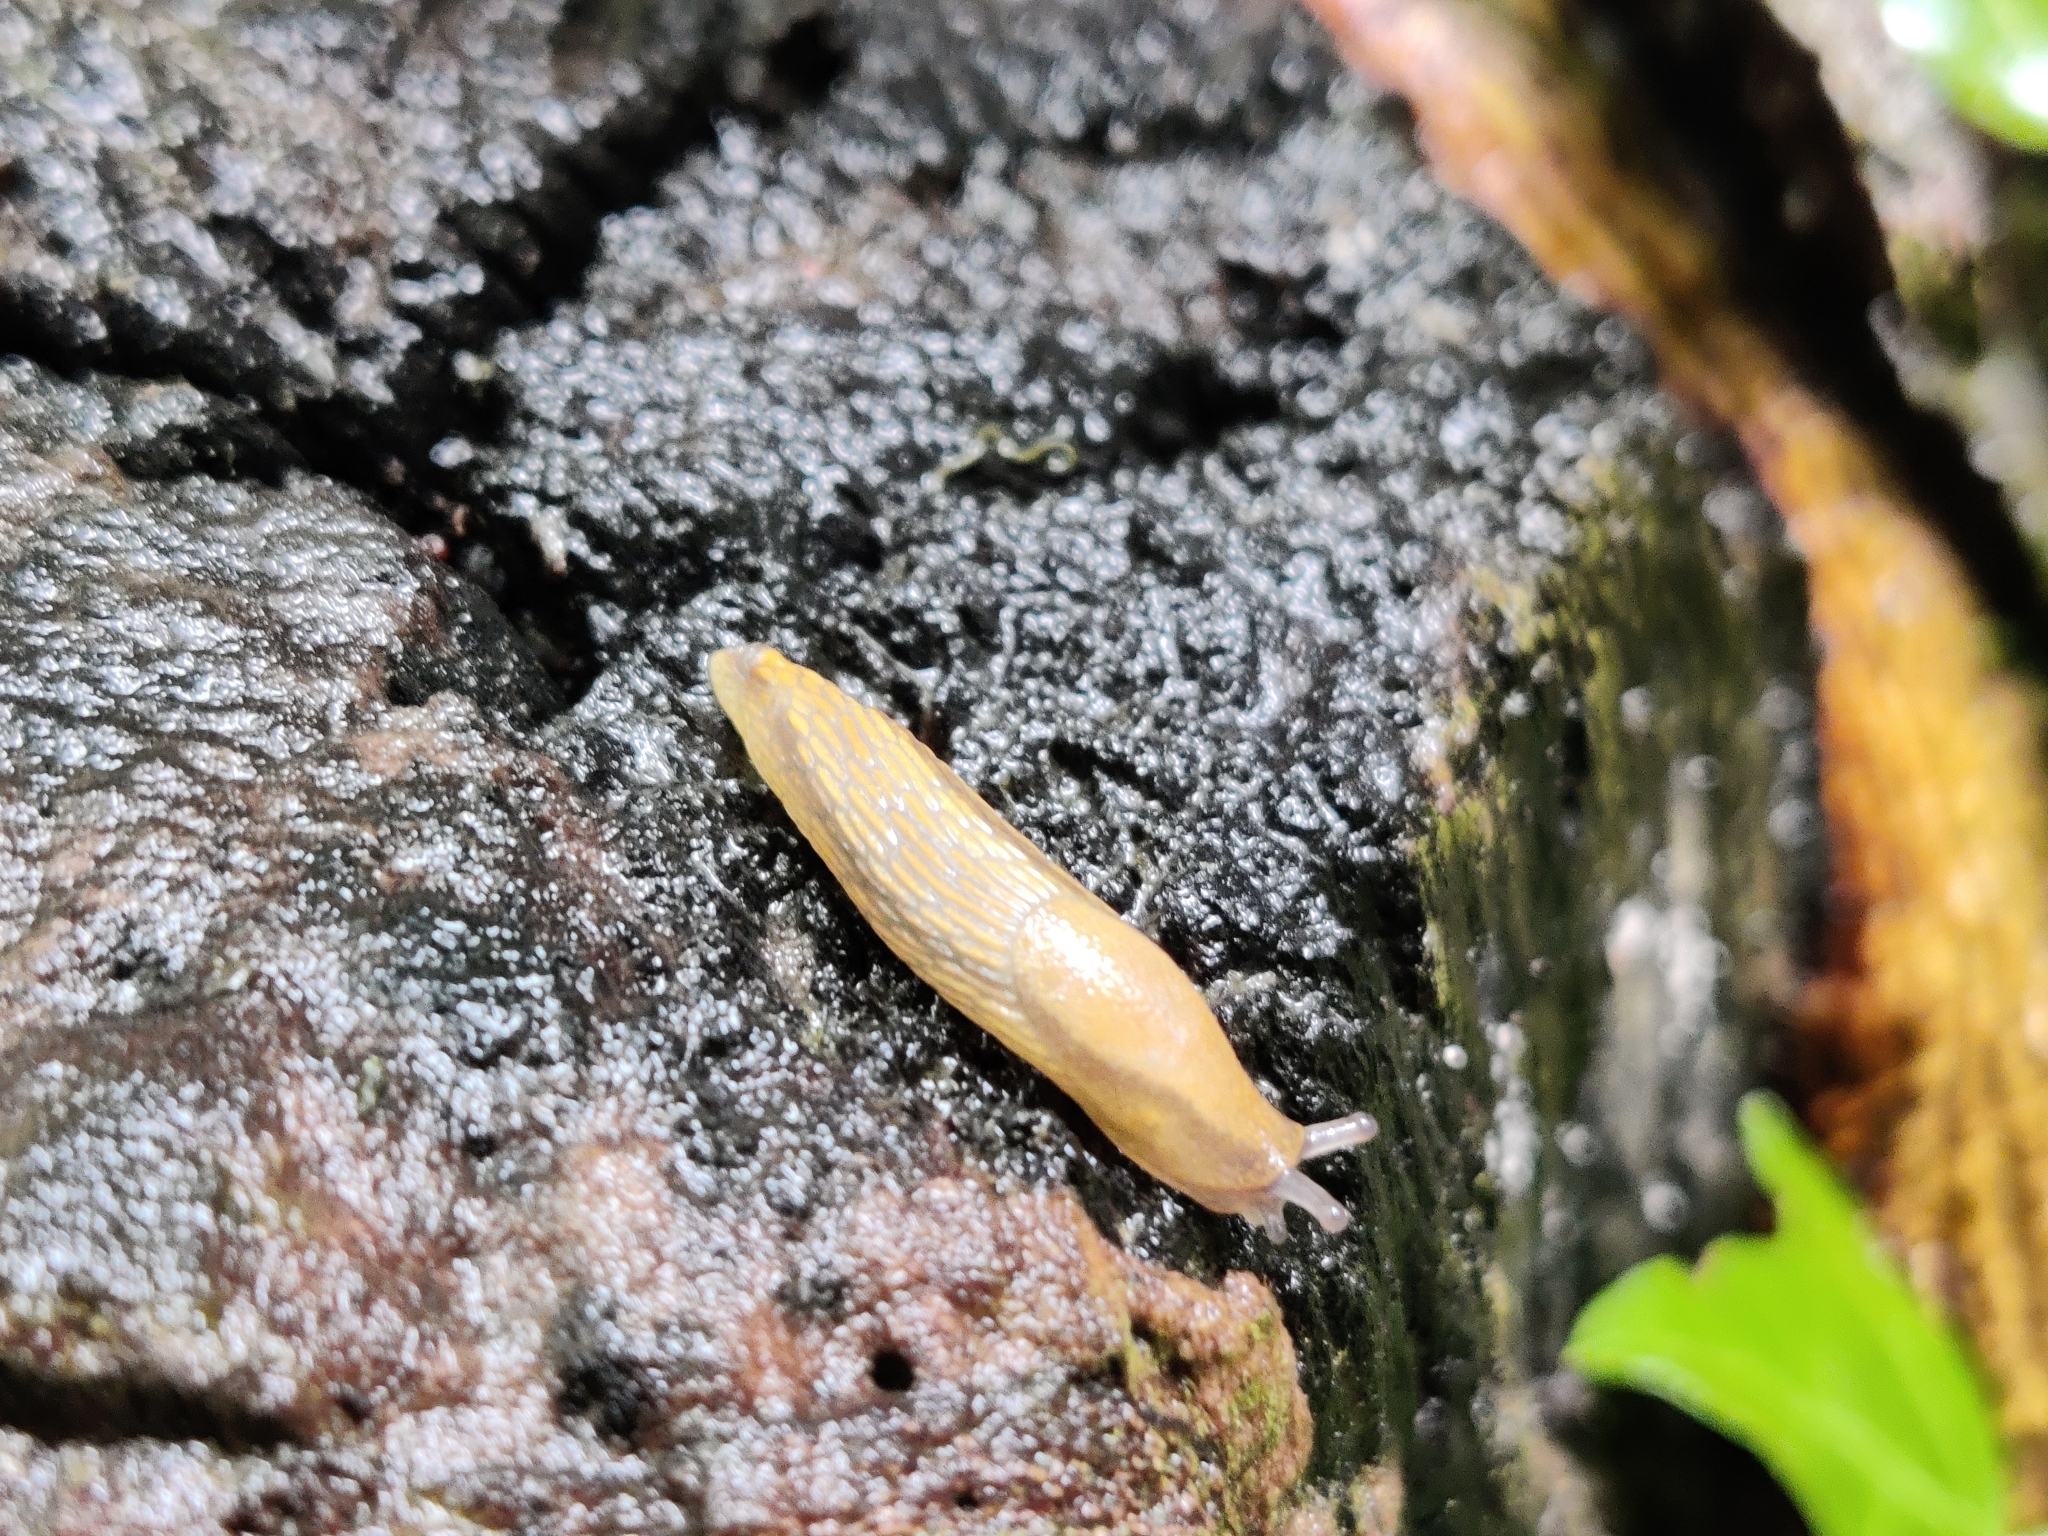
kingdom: Animalia
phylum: Mollusca
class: Gastropoda
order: Stylommatophora
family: Arionidae
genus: Arion
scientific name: Arion subfuscus
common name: Dusky arion
